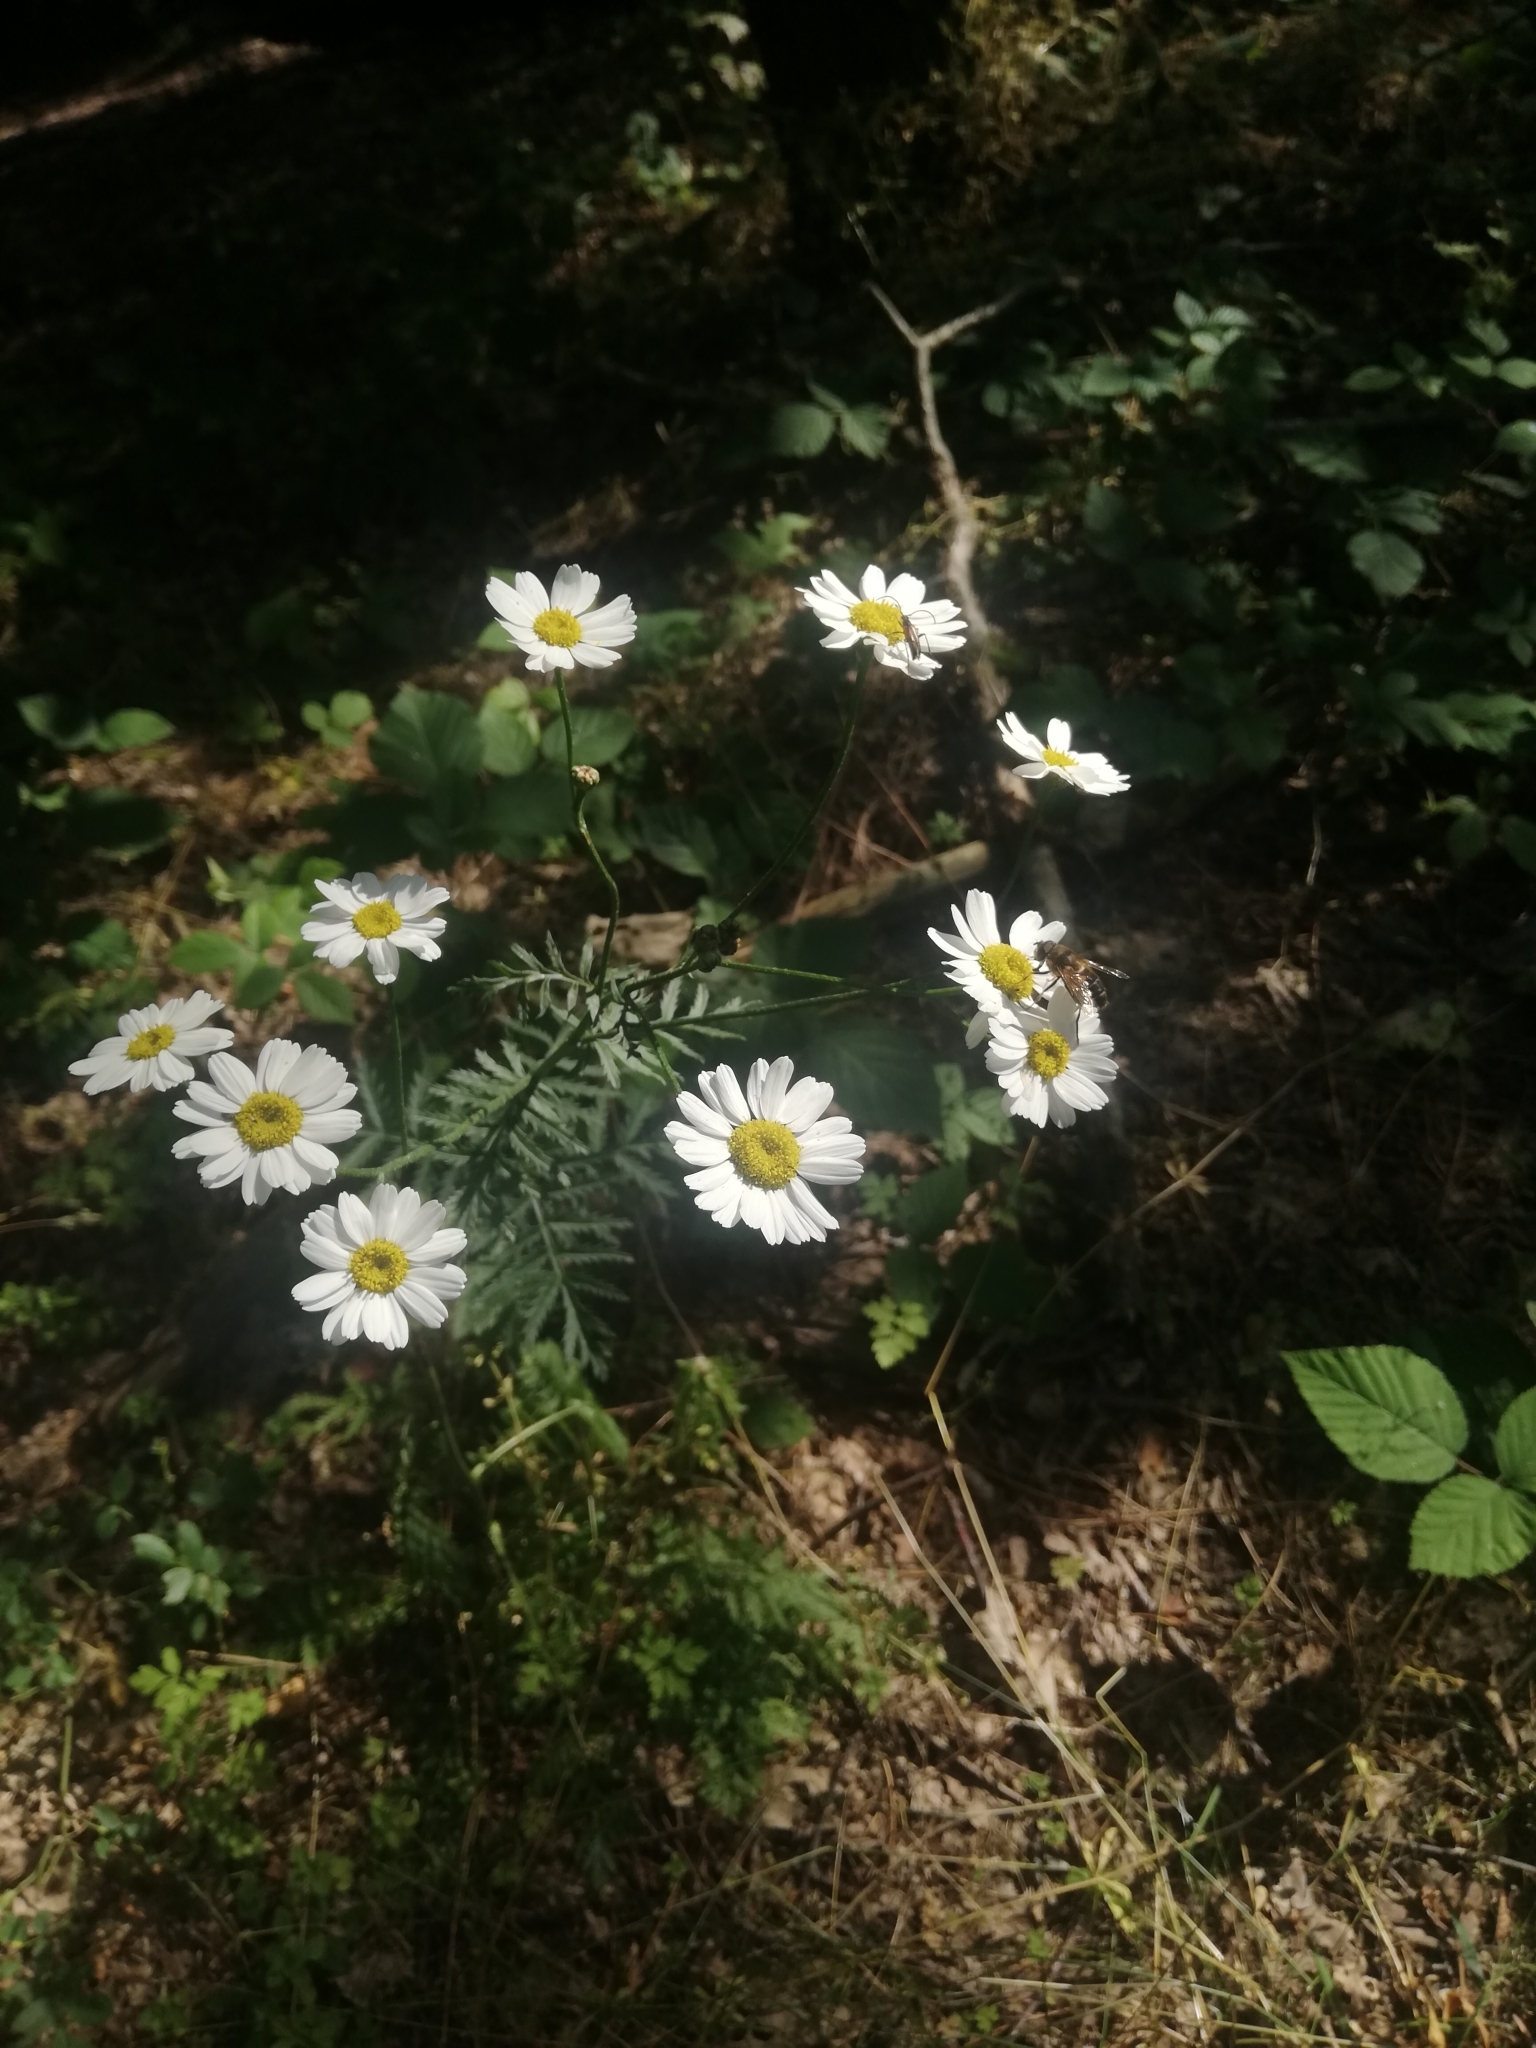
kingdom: Plantae
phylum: Tracheophyta
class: Magnoliopsida
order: Asterales
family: Asteraceae
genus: Tanacetum
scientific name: Tanacetum corymbosum
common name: Scentless feverfew
